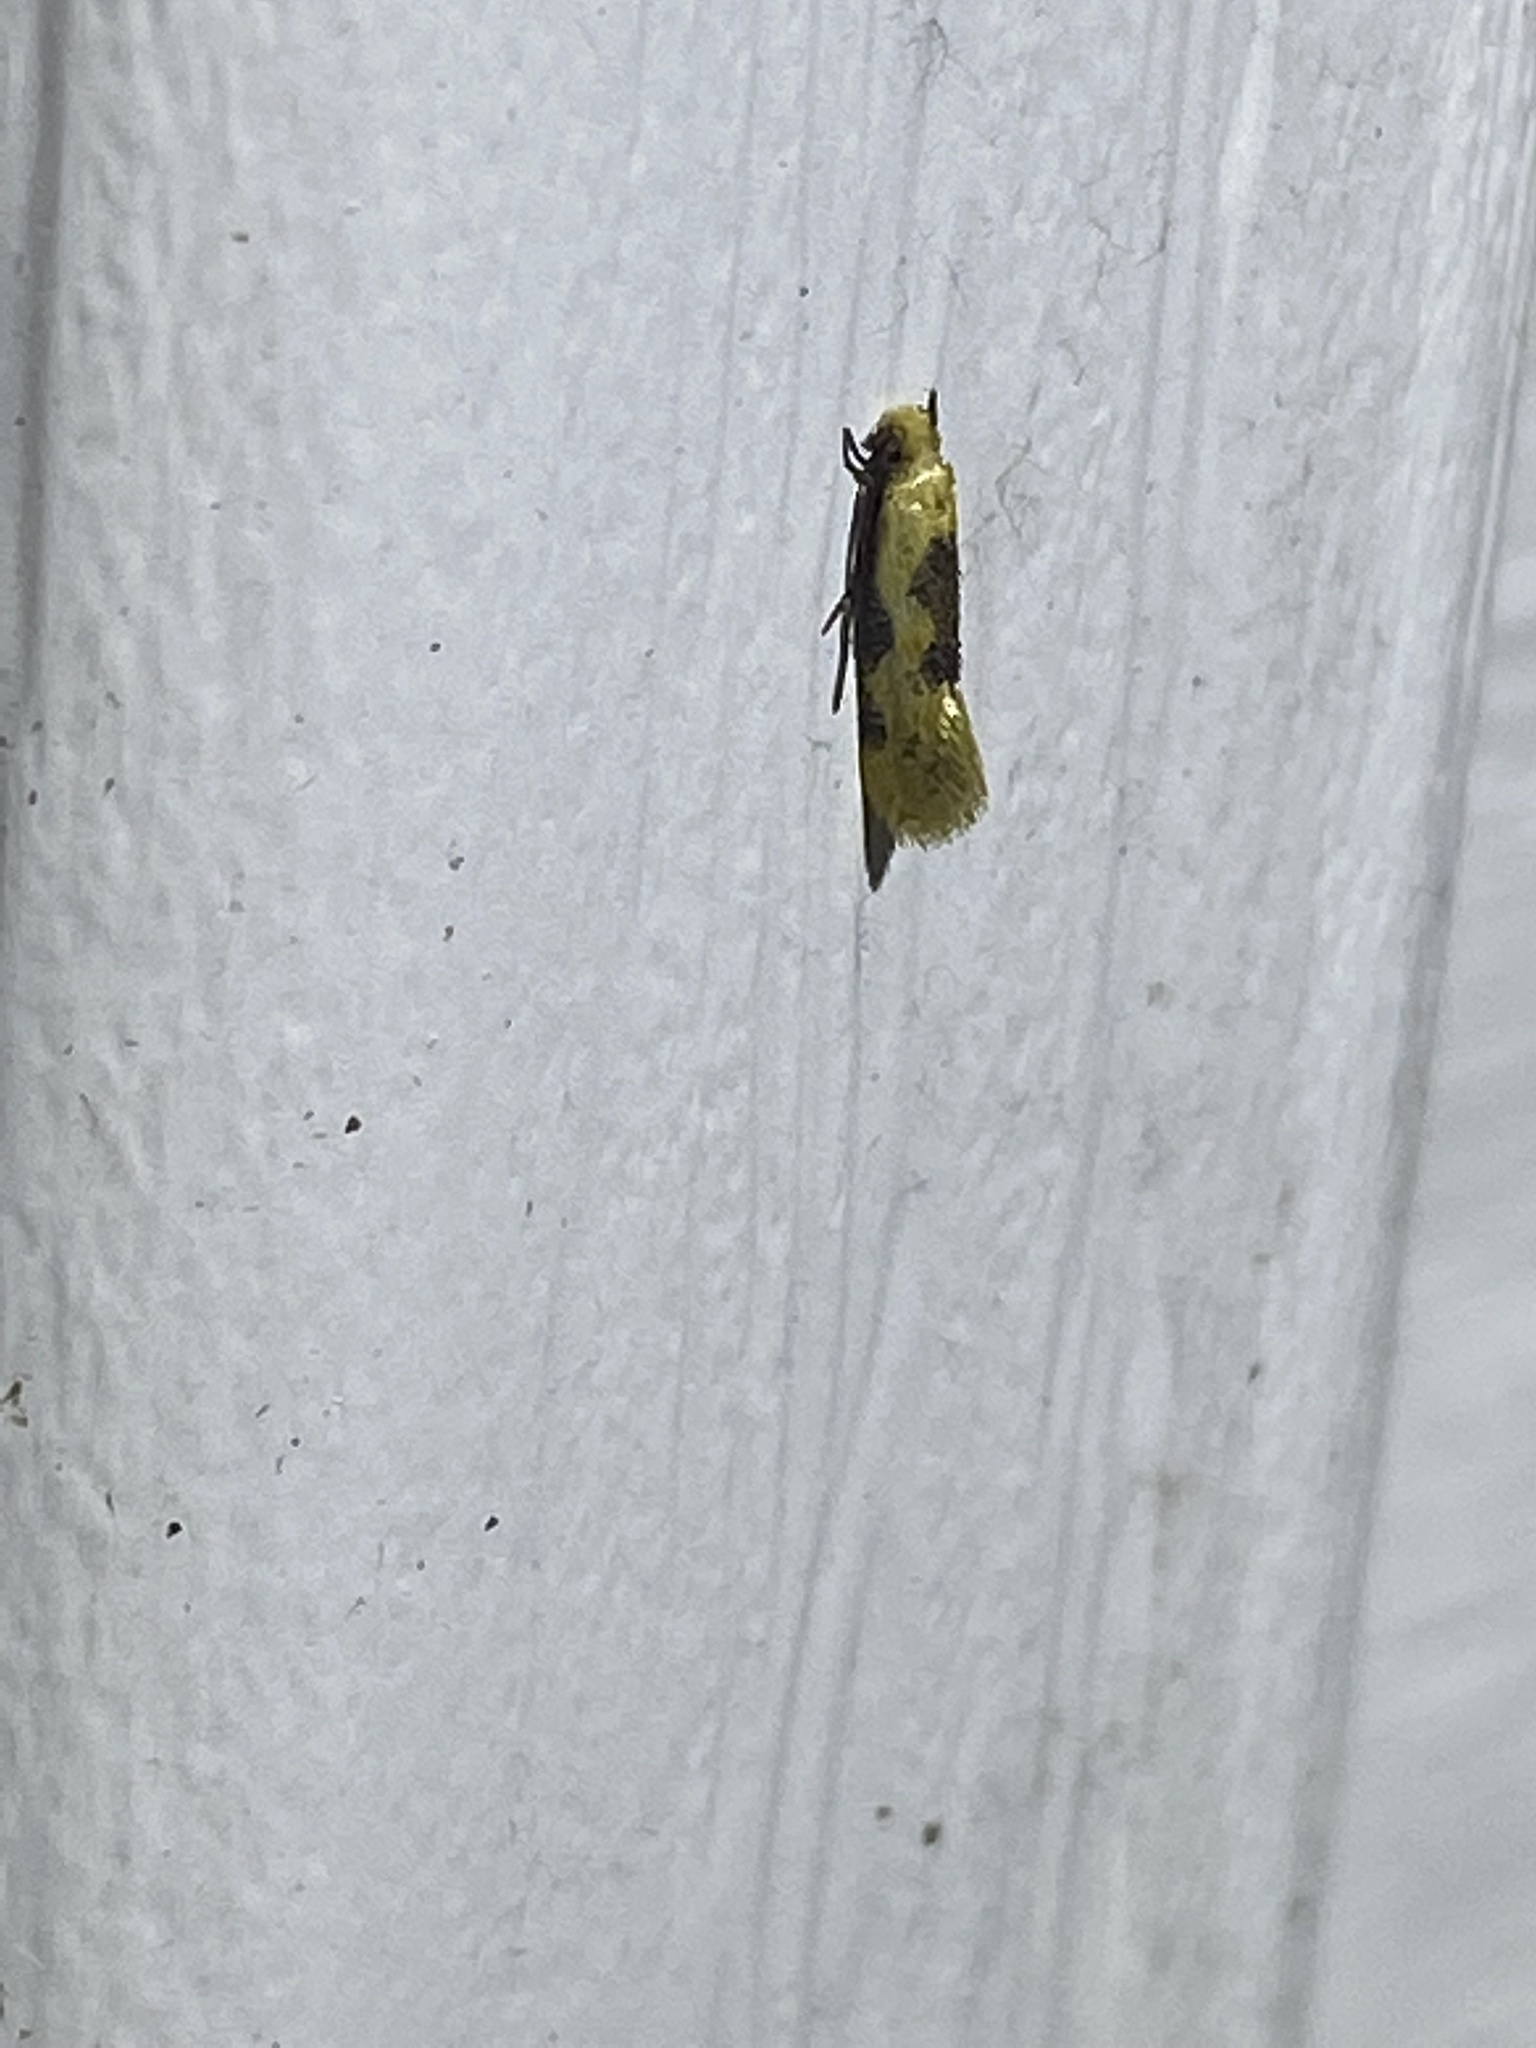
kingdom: Animalia
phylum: Arthropoda
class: Insecta
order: Lepidoptera
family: Meessiidae
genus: Hybroma
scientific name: Hybroma servulella
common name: Yellow wave moth
